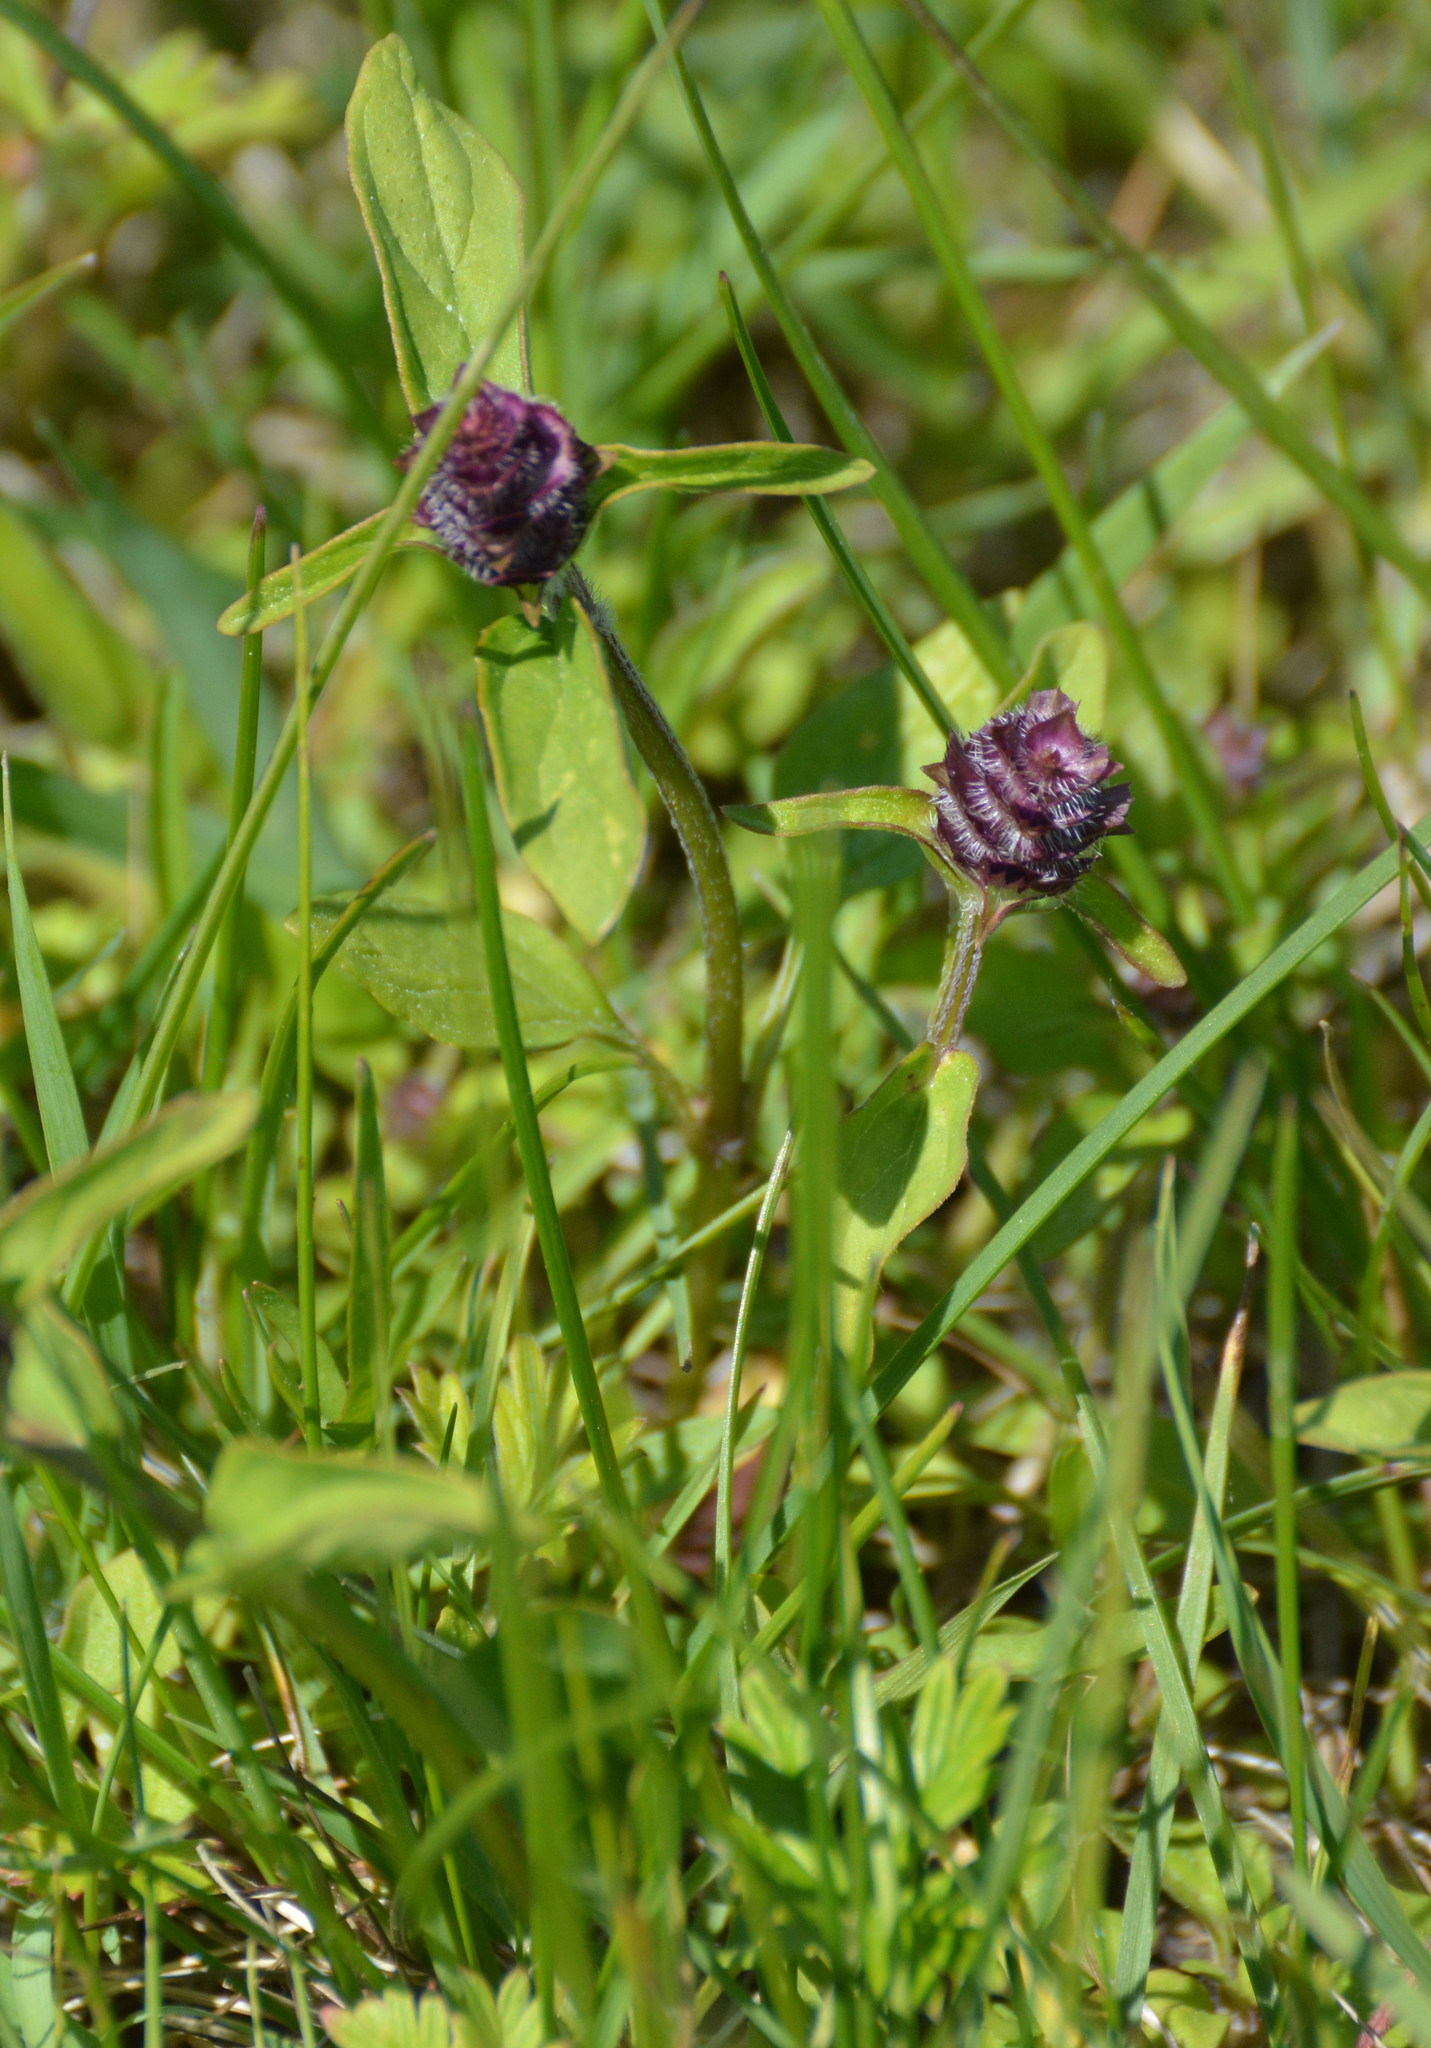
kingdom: Plantae
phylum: Tracheophyta
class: Magnoliopsida
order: Lamiales
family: Lamiaceae
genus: Prunella
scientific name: Prunella vulgaris
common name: Heal-all
